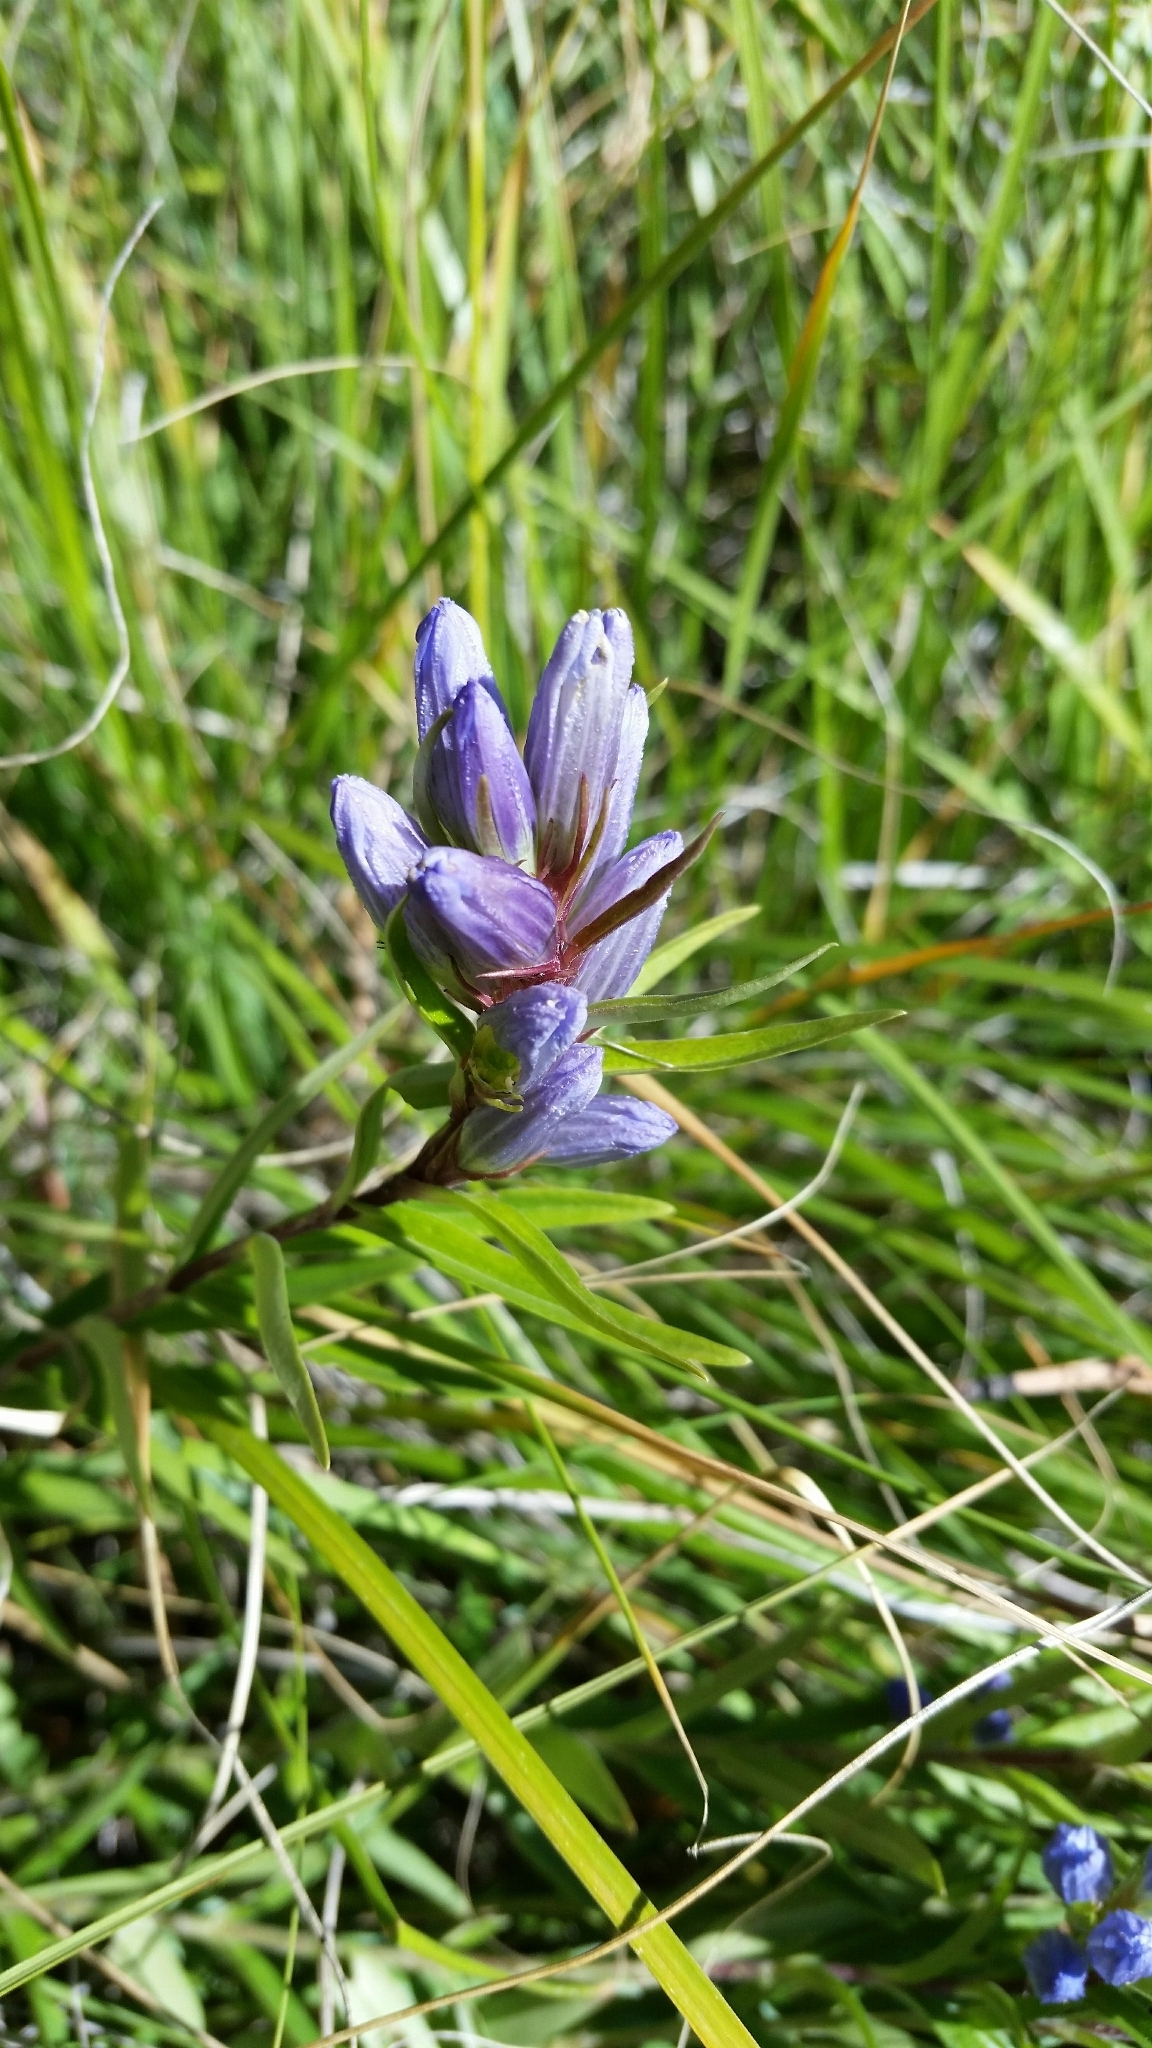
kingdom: Plantae
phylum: Tracheophyta
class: Magnoliopsida
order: Gentianales
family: Gentianaceae
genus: Gentiana
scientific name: Gentiana affinis
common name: Rocky mountain gentian
